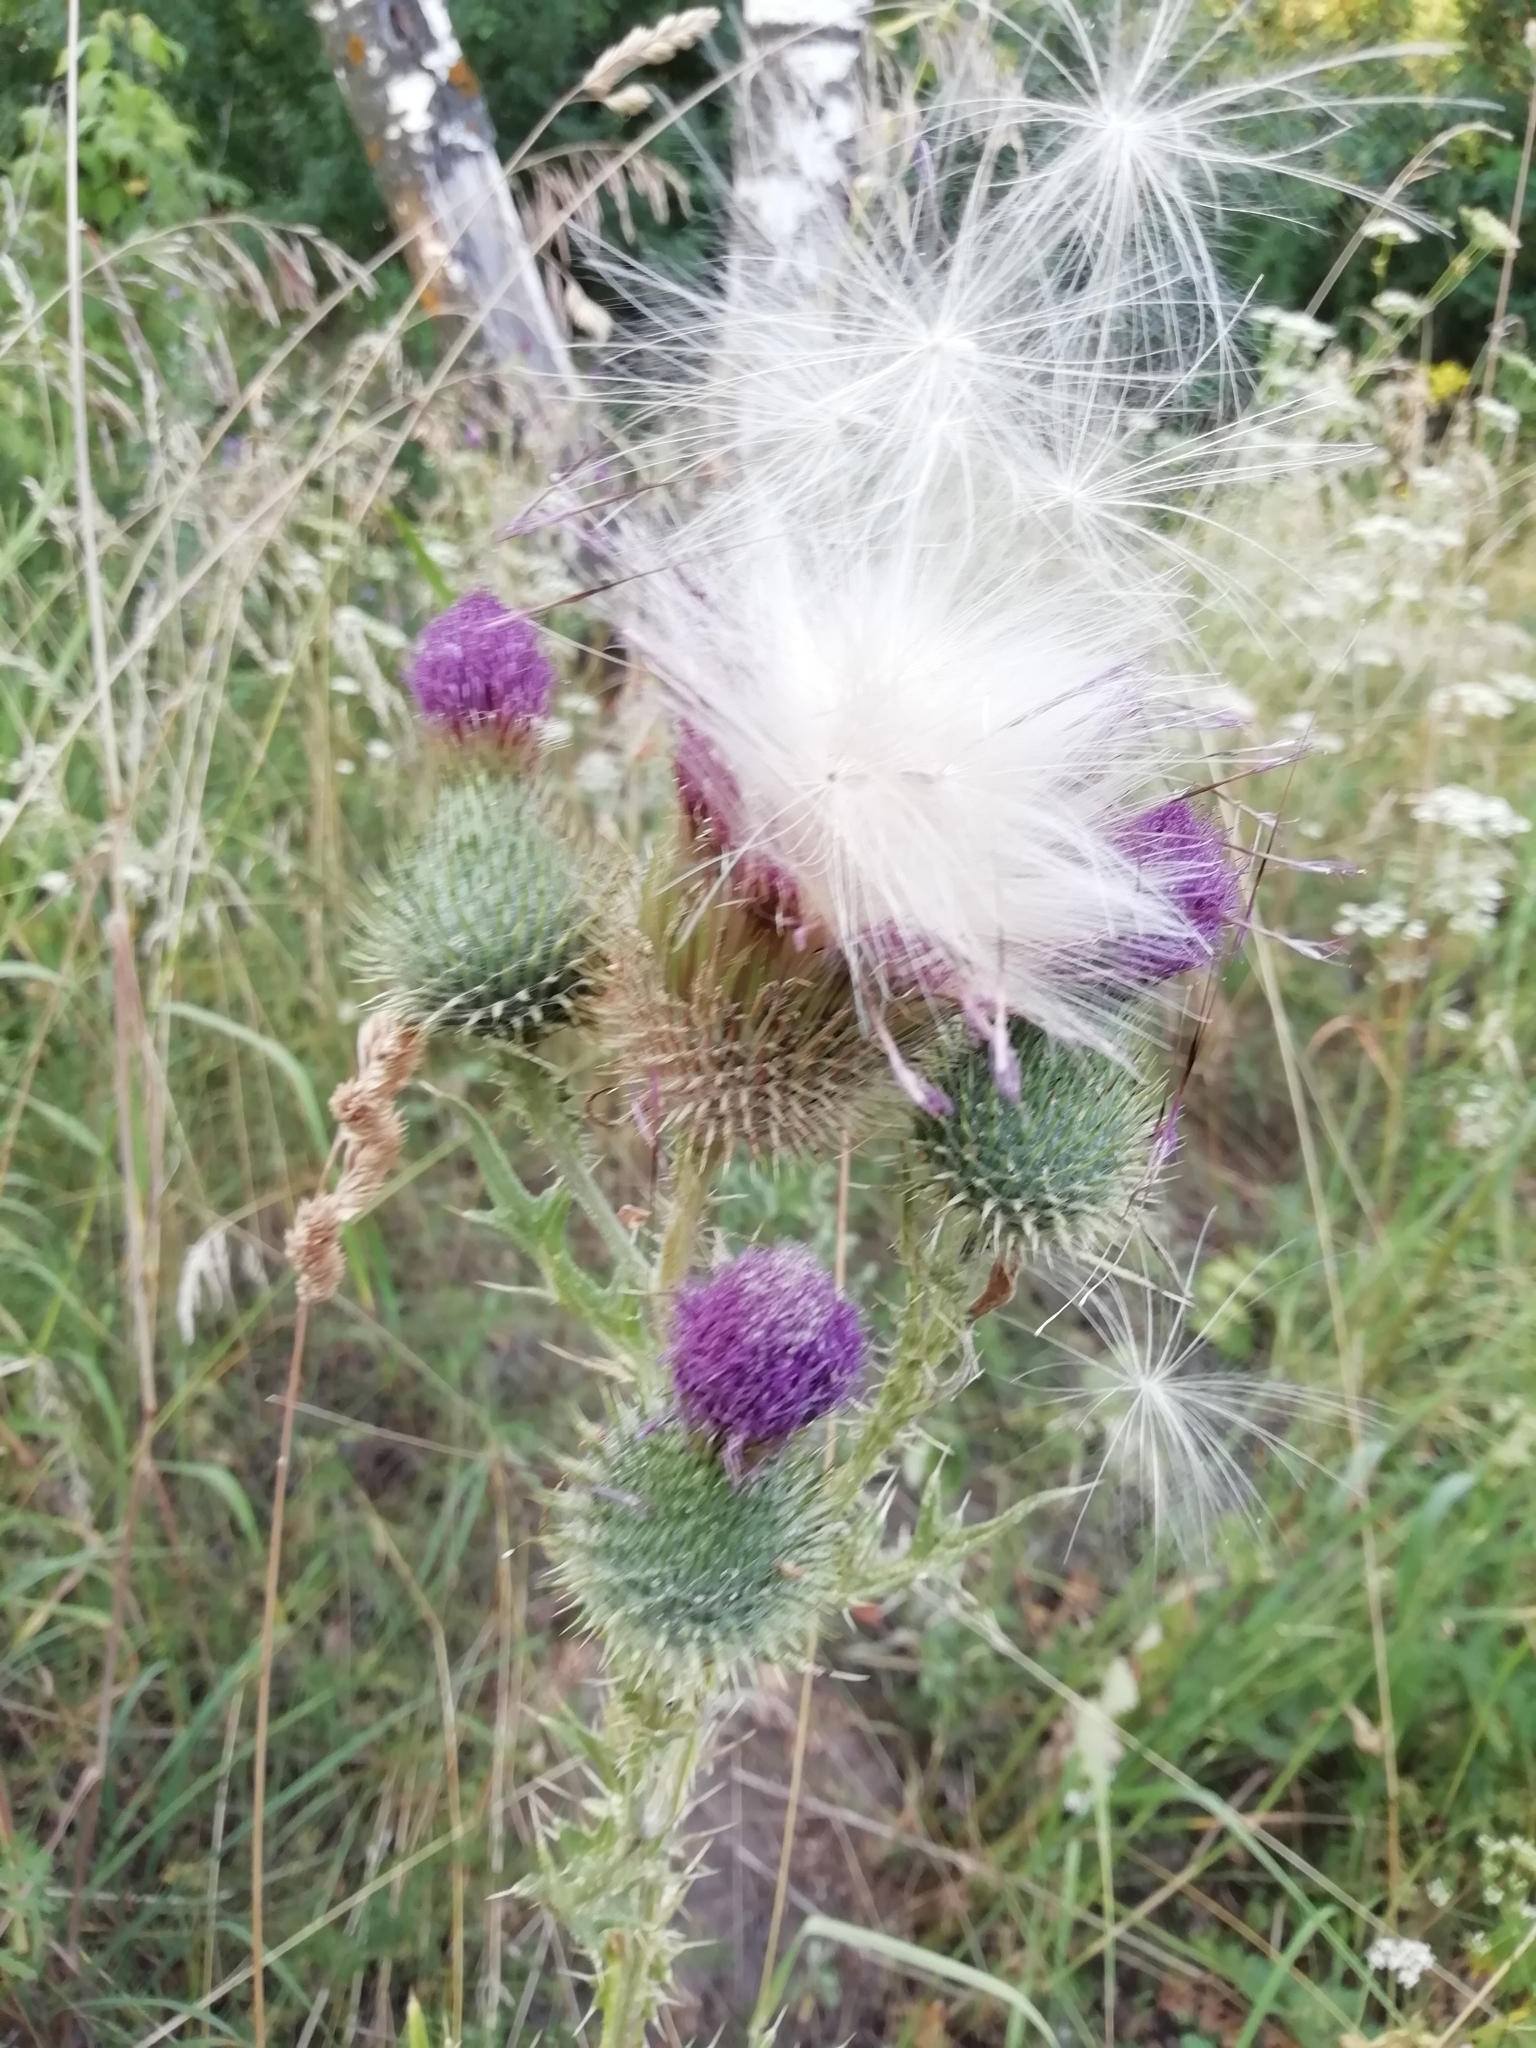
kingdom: Plantae
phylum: Tracheophyta
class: Magnoliopsida
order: Asterales
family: Asteraceae
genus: Cirsium
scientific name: Cirsium vulgare
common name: Bull thistle
